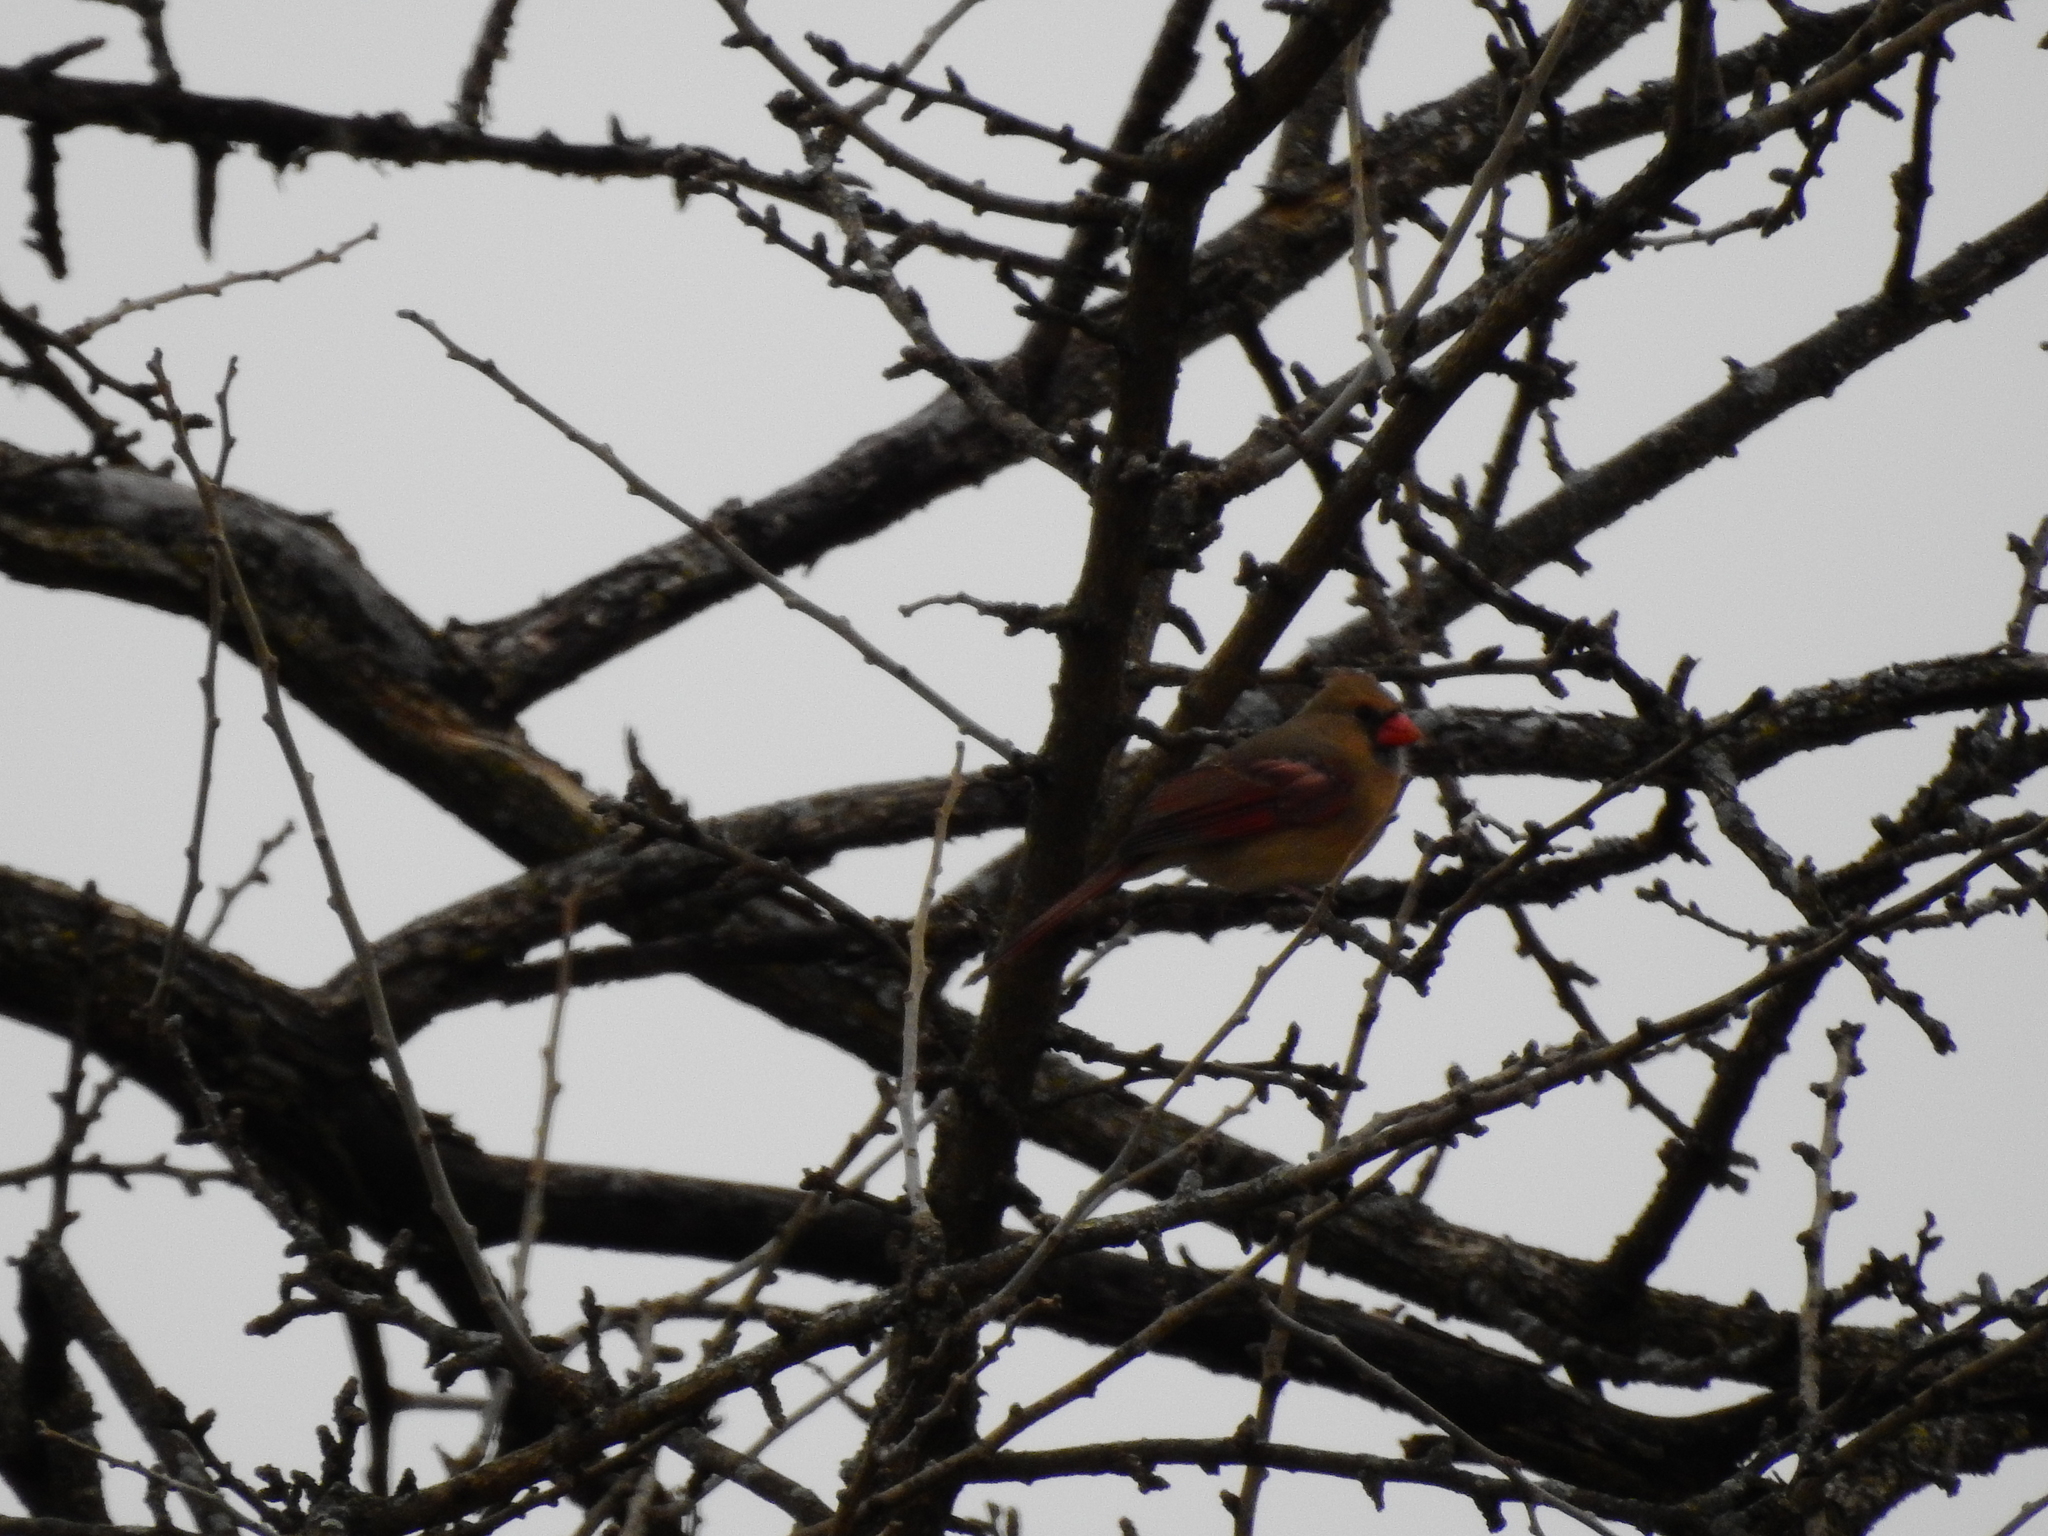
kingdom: Animalia
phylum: Chordata
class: Aves
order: Passeriformes
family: Cardinalidae
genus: Cardinalis
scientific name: Cardinalis cardinalis
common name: Northern cardinal
